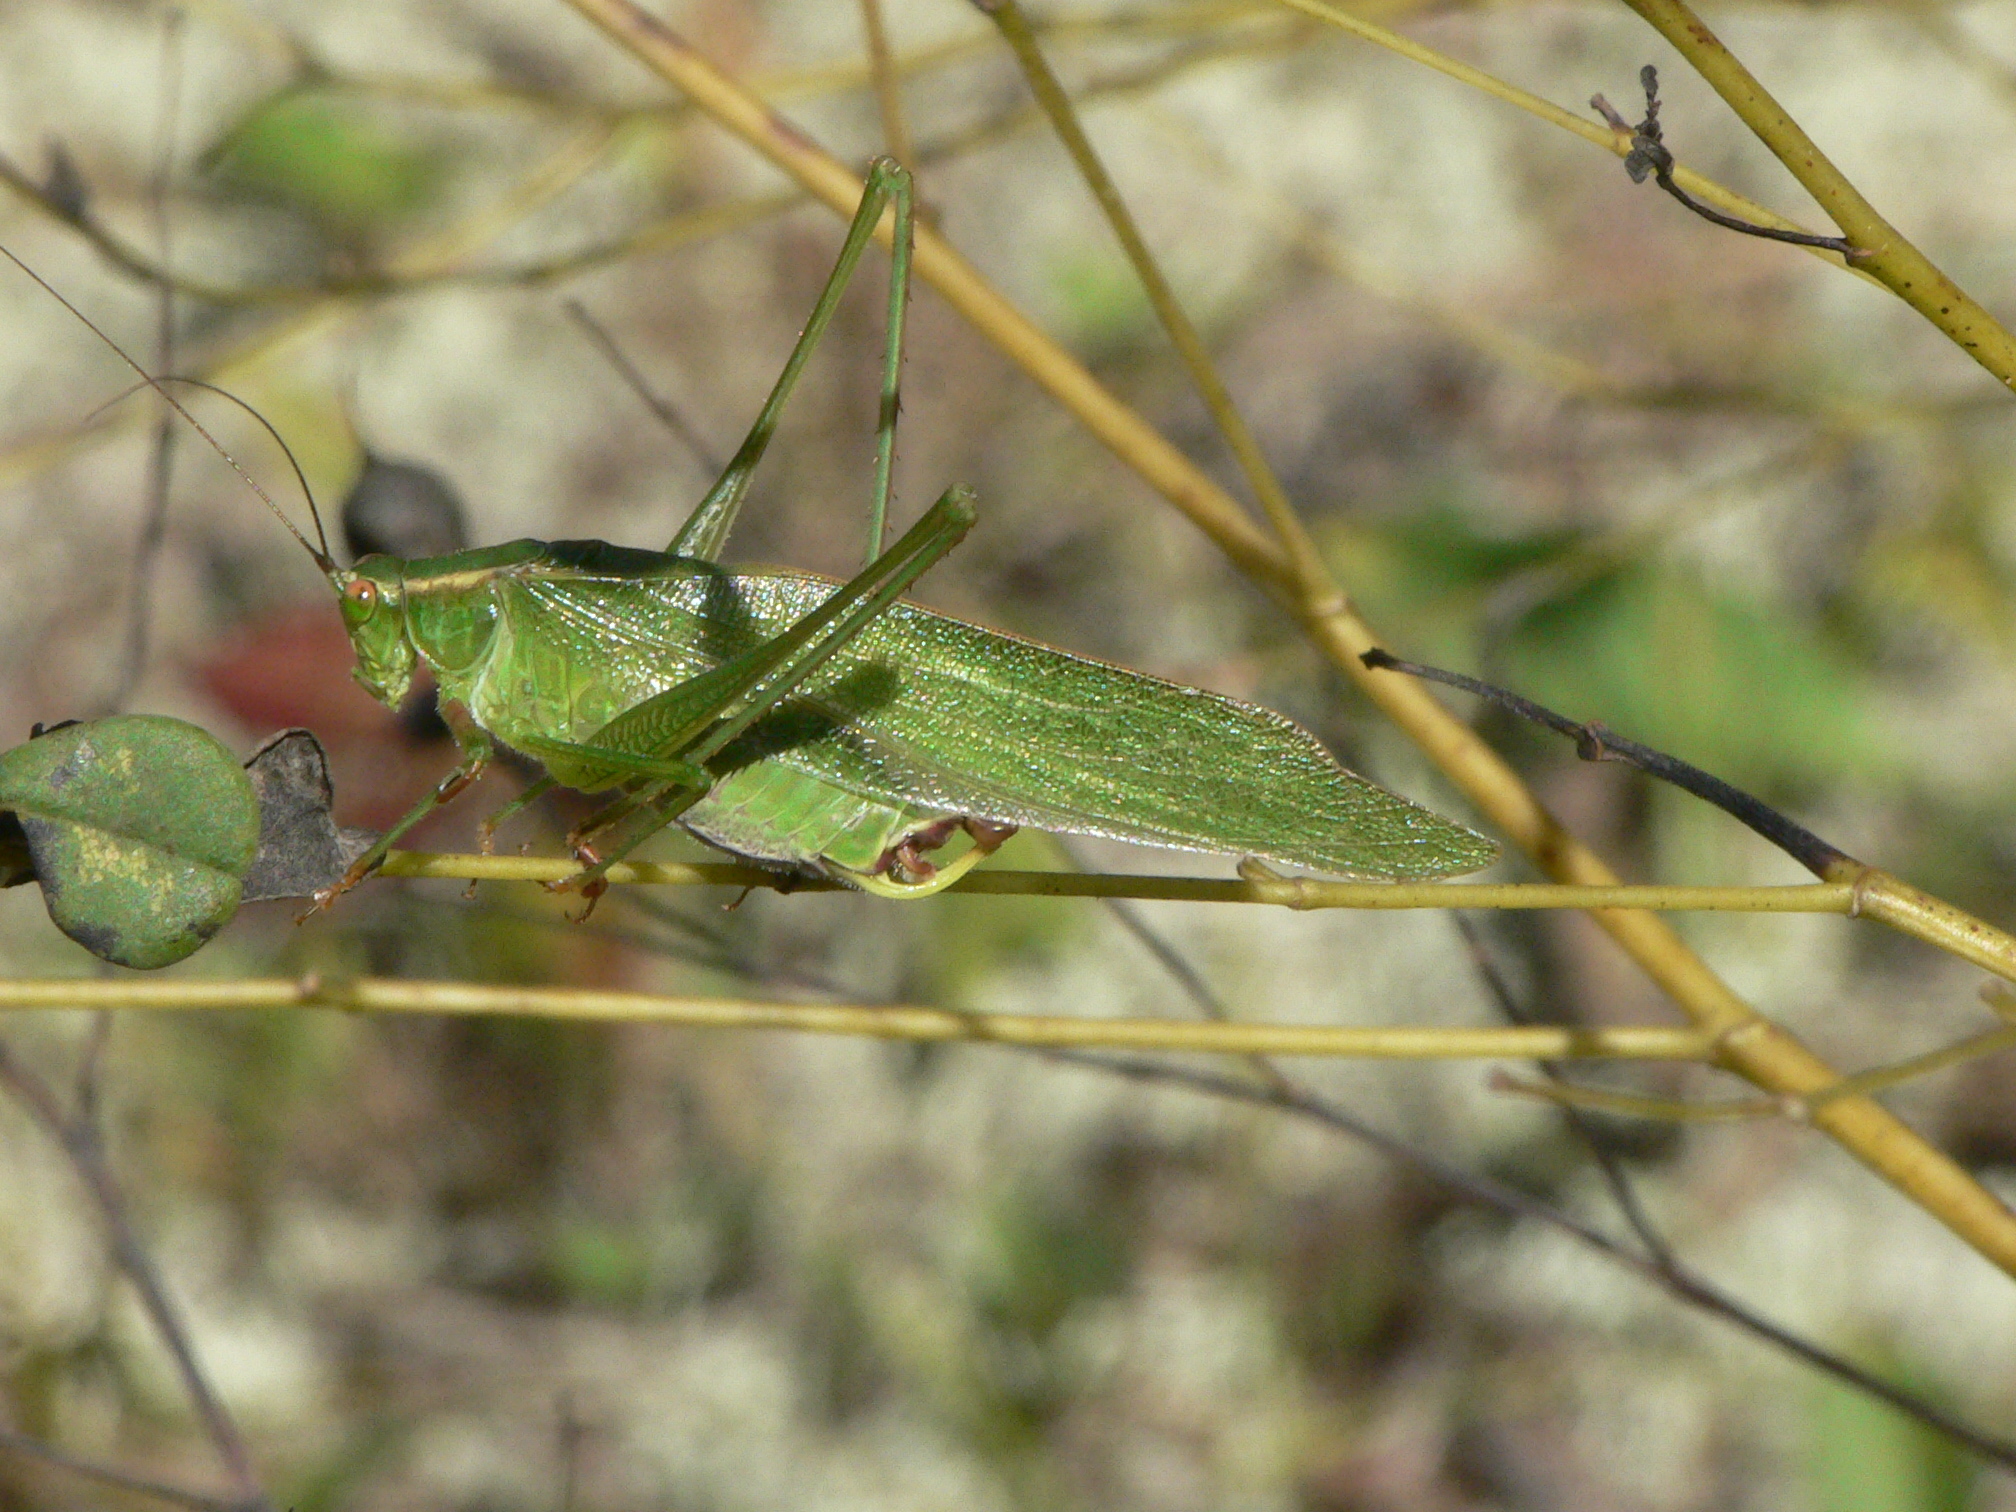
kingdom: Animalia
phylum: Arthropoda
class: Insecta
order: Orthoptera
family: Tettigoniidae
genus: Scudderia
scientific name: Scudderia furcata
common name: Fork-tailed bush katydid
